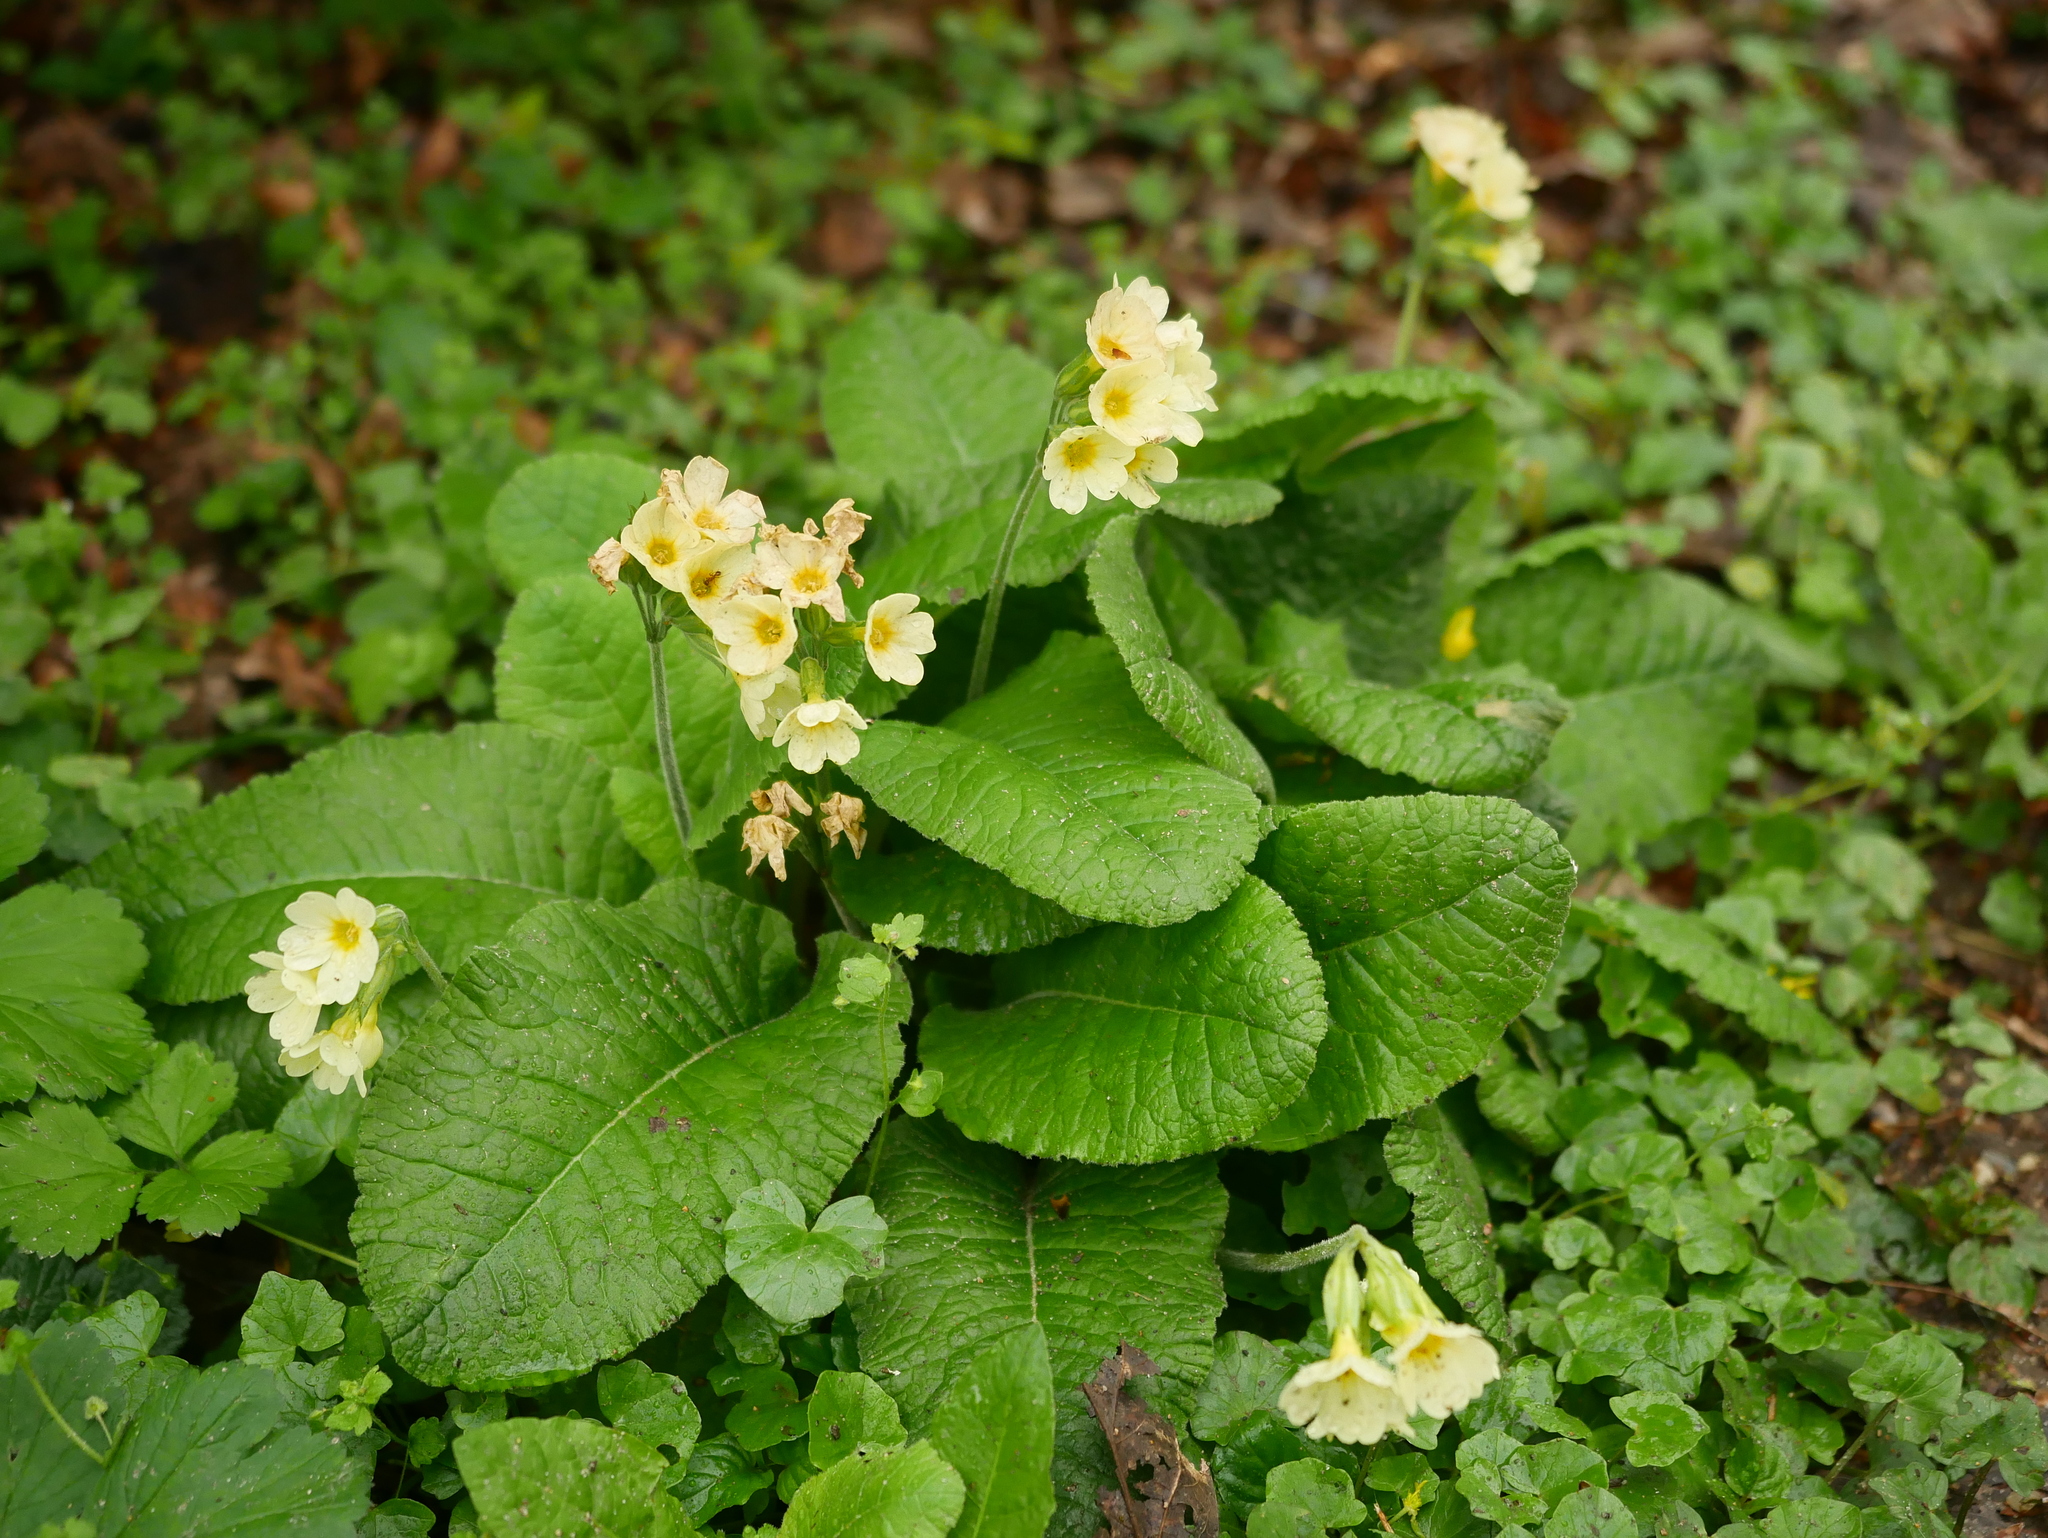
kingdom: Plantae
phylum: Tracheophyta
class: Magnoliopsida
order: Ericales
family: Primulaceae
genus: Primula
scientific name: Primula elatior
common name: Oxlip
